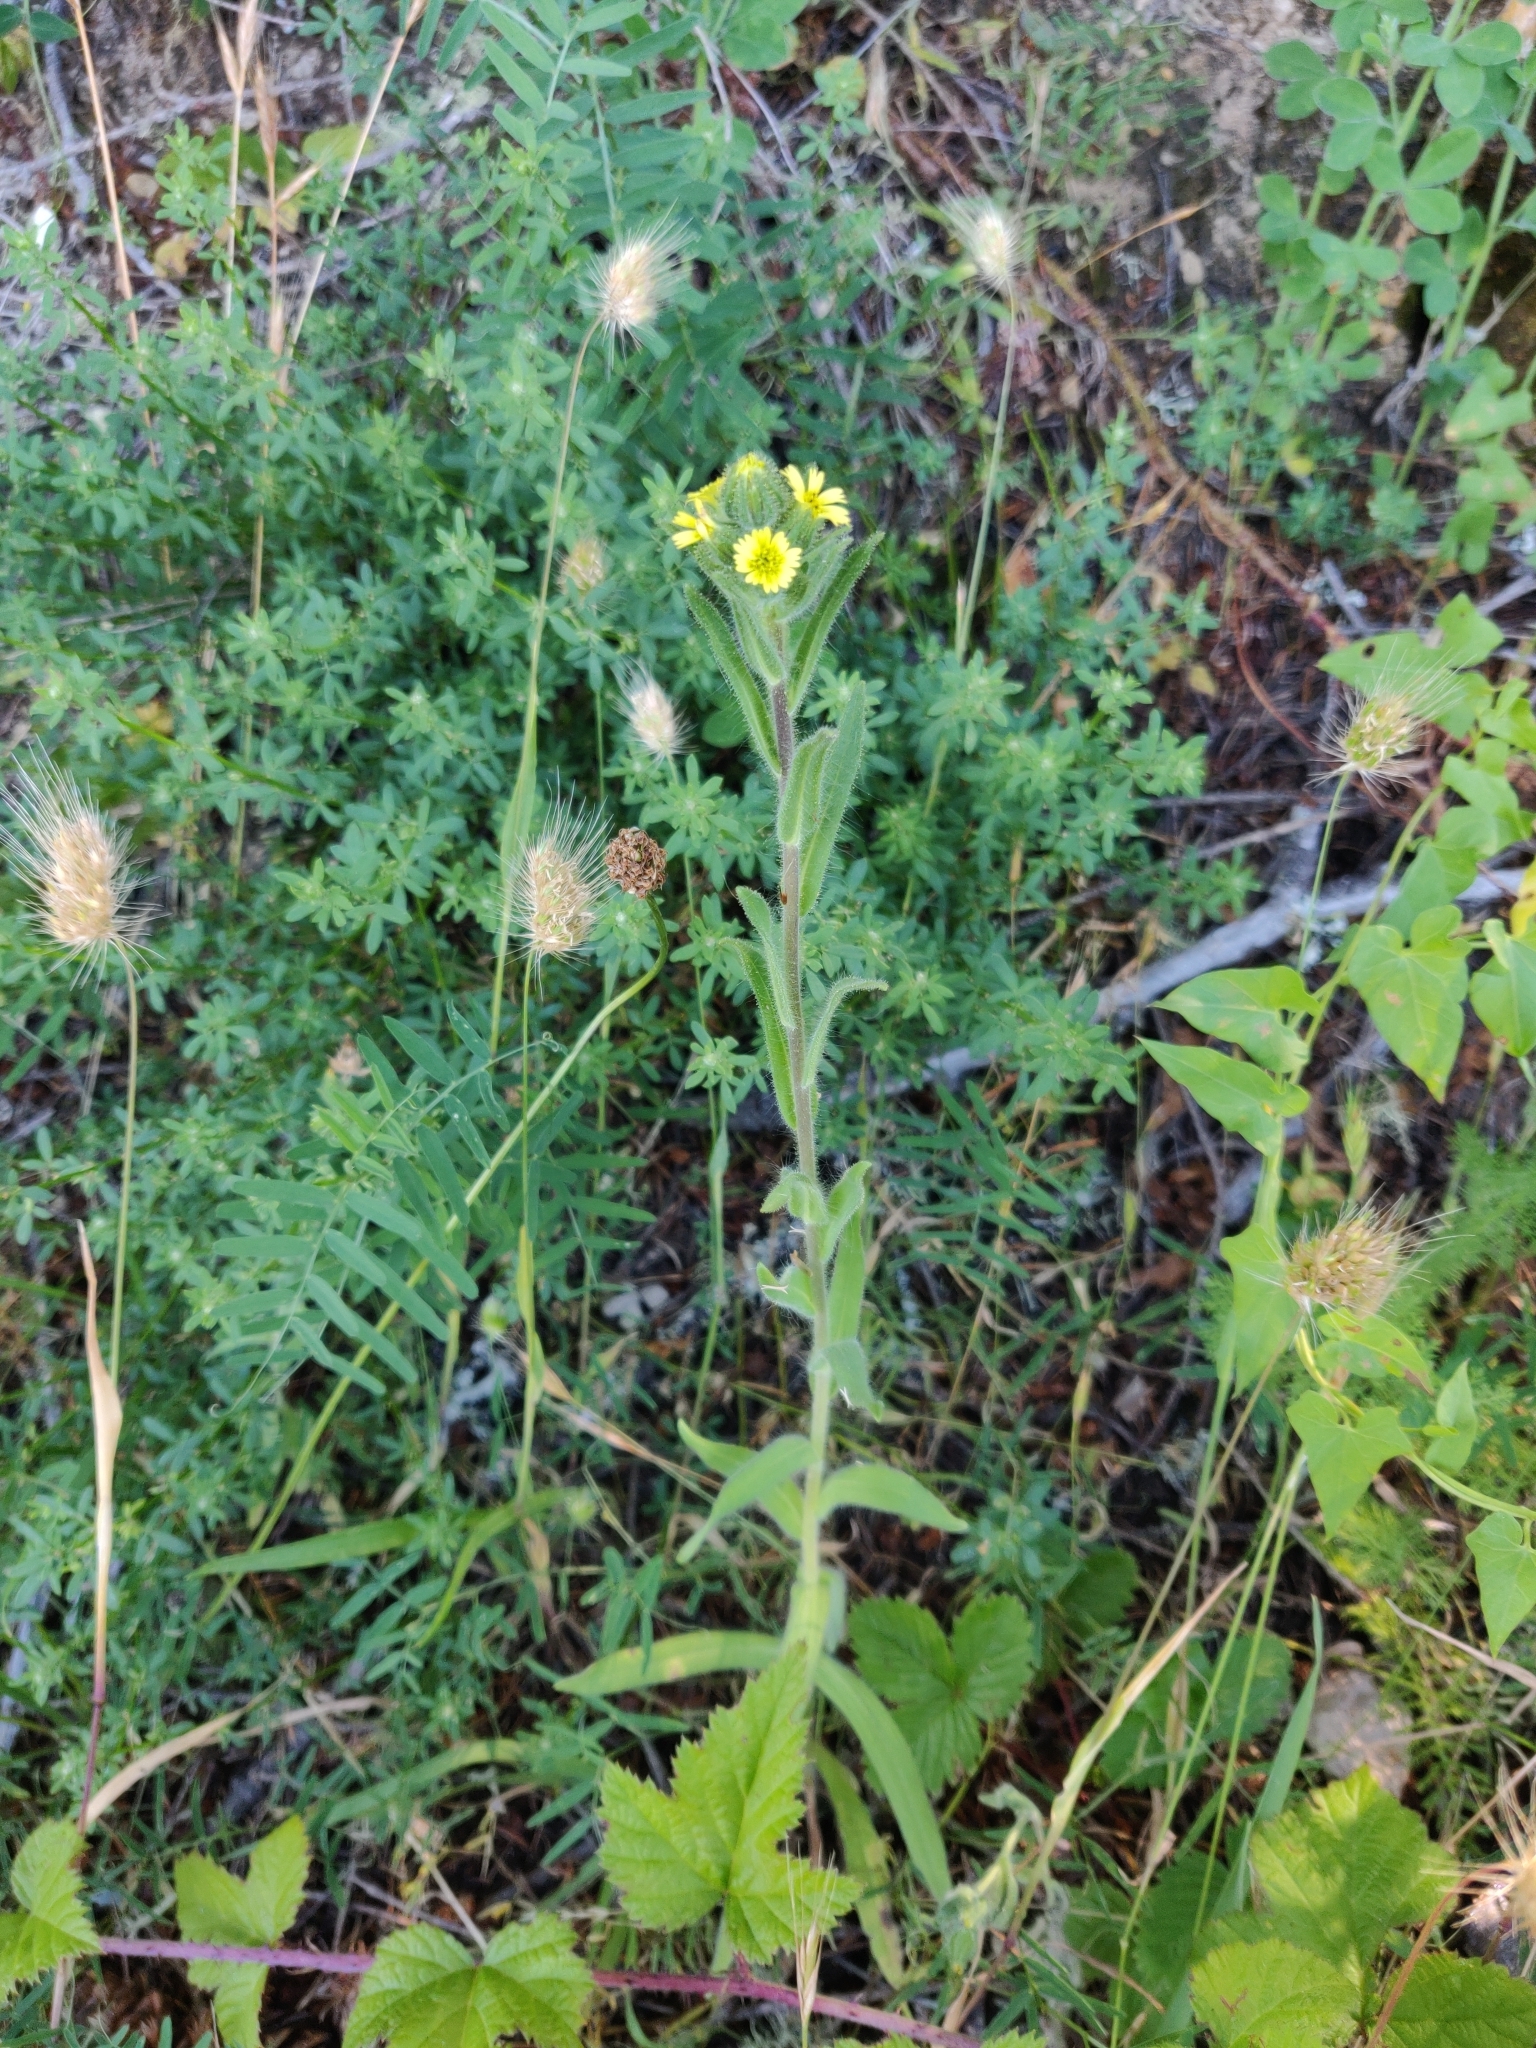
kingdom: Plantae
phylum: Tracheophyta
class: Magnoliopsida
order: Asterales
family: Asteraceae
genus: Madia
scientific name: Madia sativa
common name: Coast tarweed
